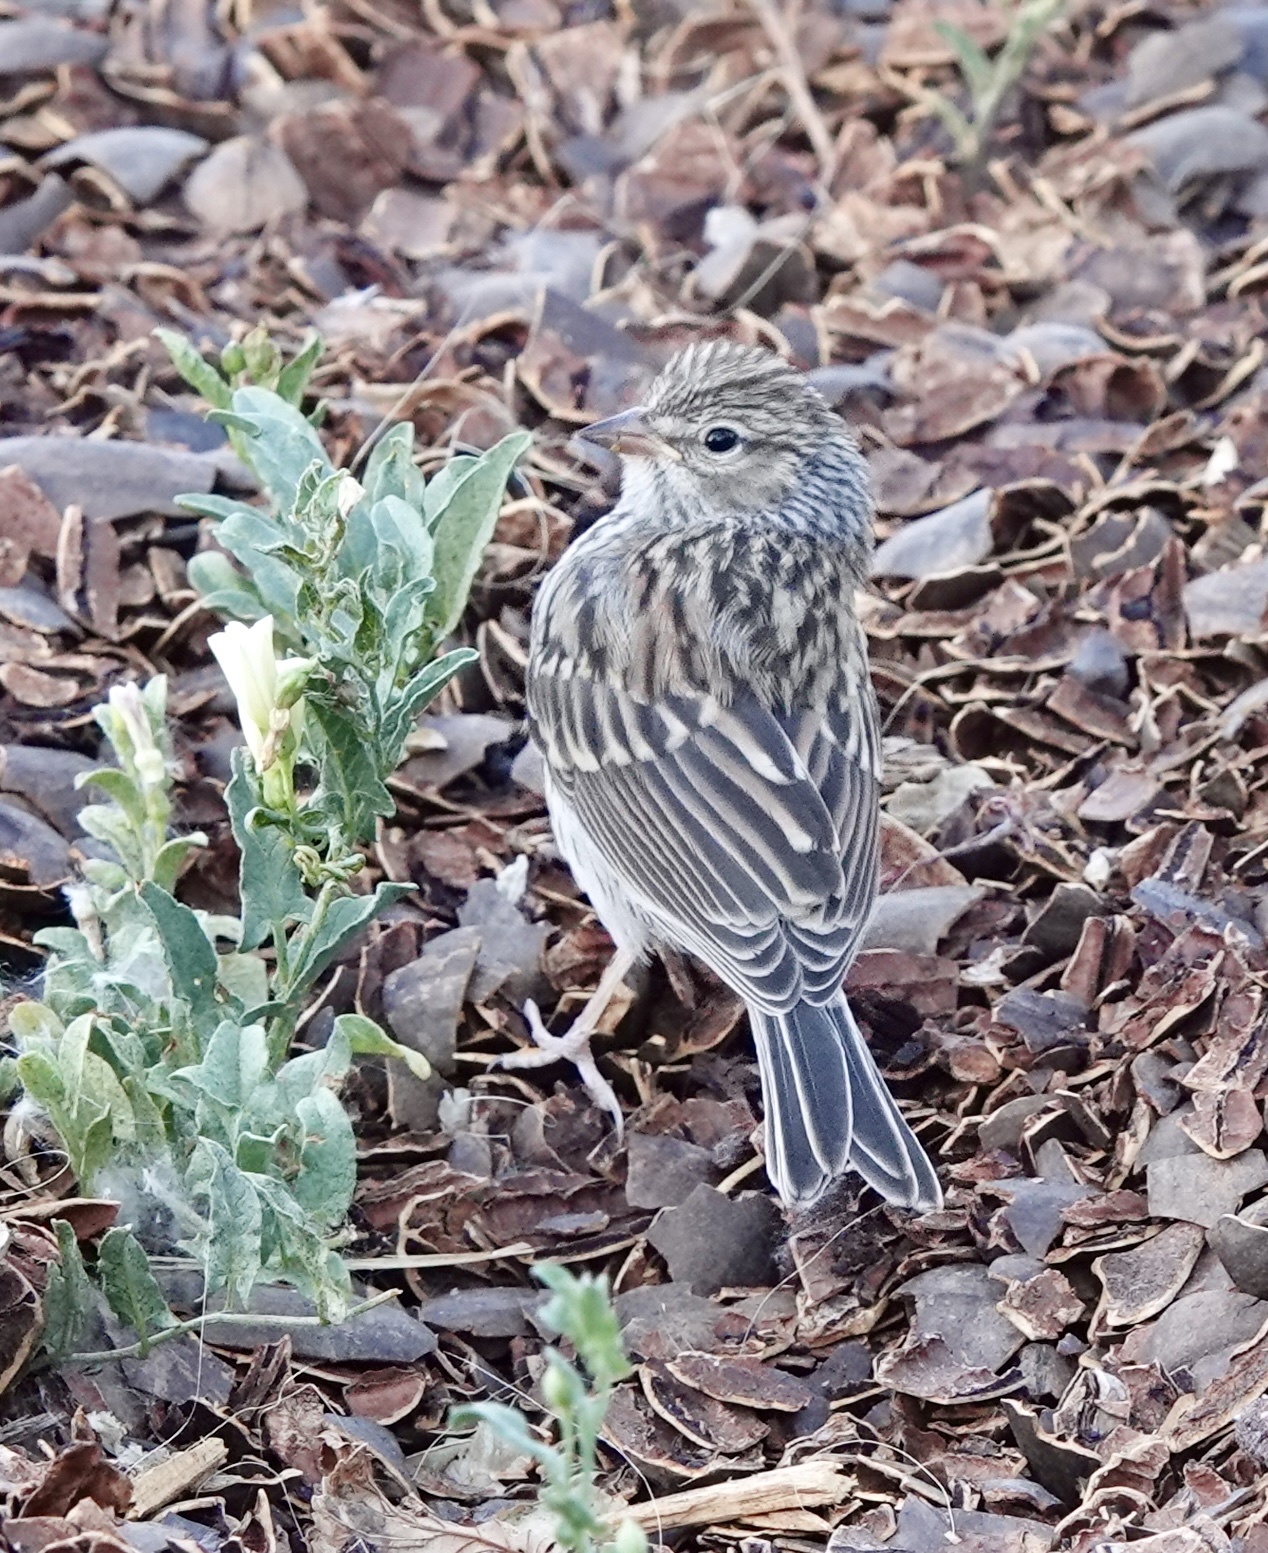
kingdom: Animalia
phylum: Chordata
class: Aves
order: Passeriformes
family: Passerellidae
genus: Spizella
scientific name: Spizella passerina
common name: Chipping sparrow
